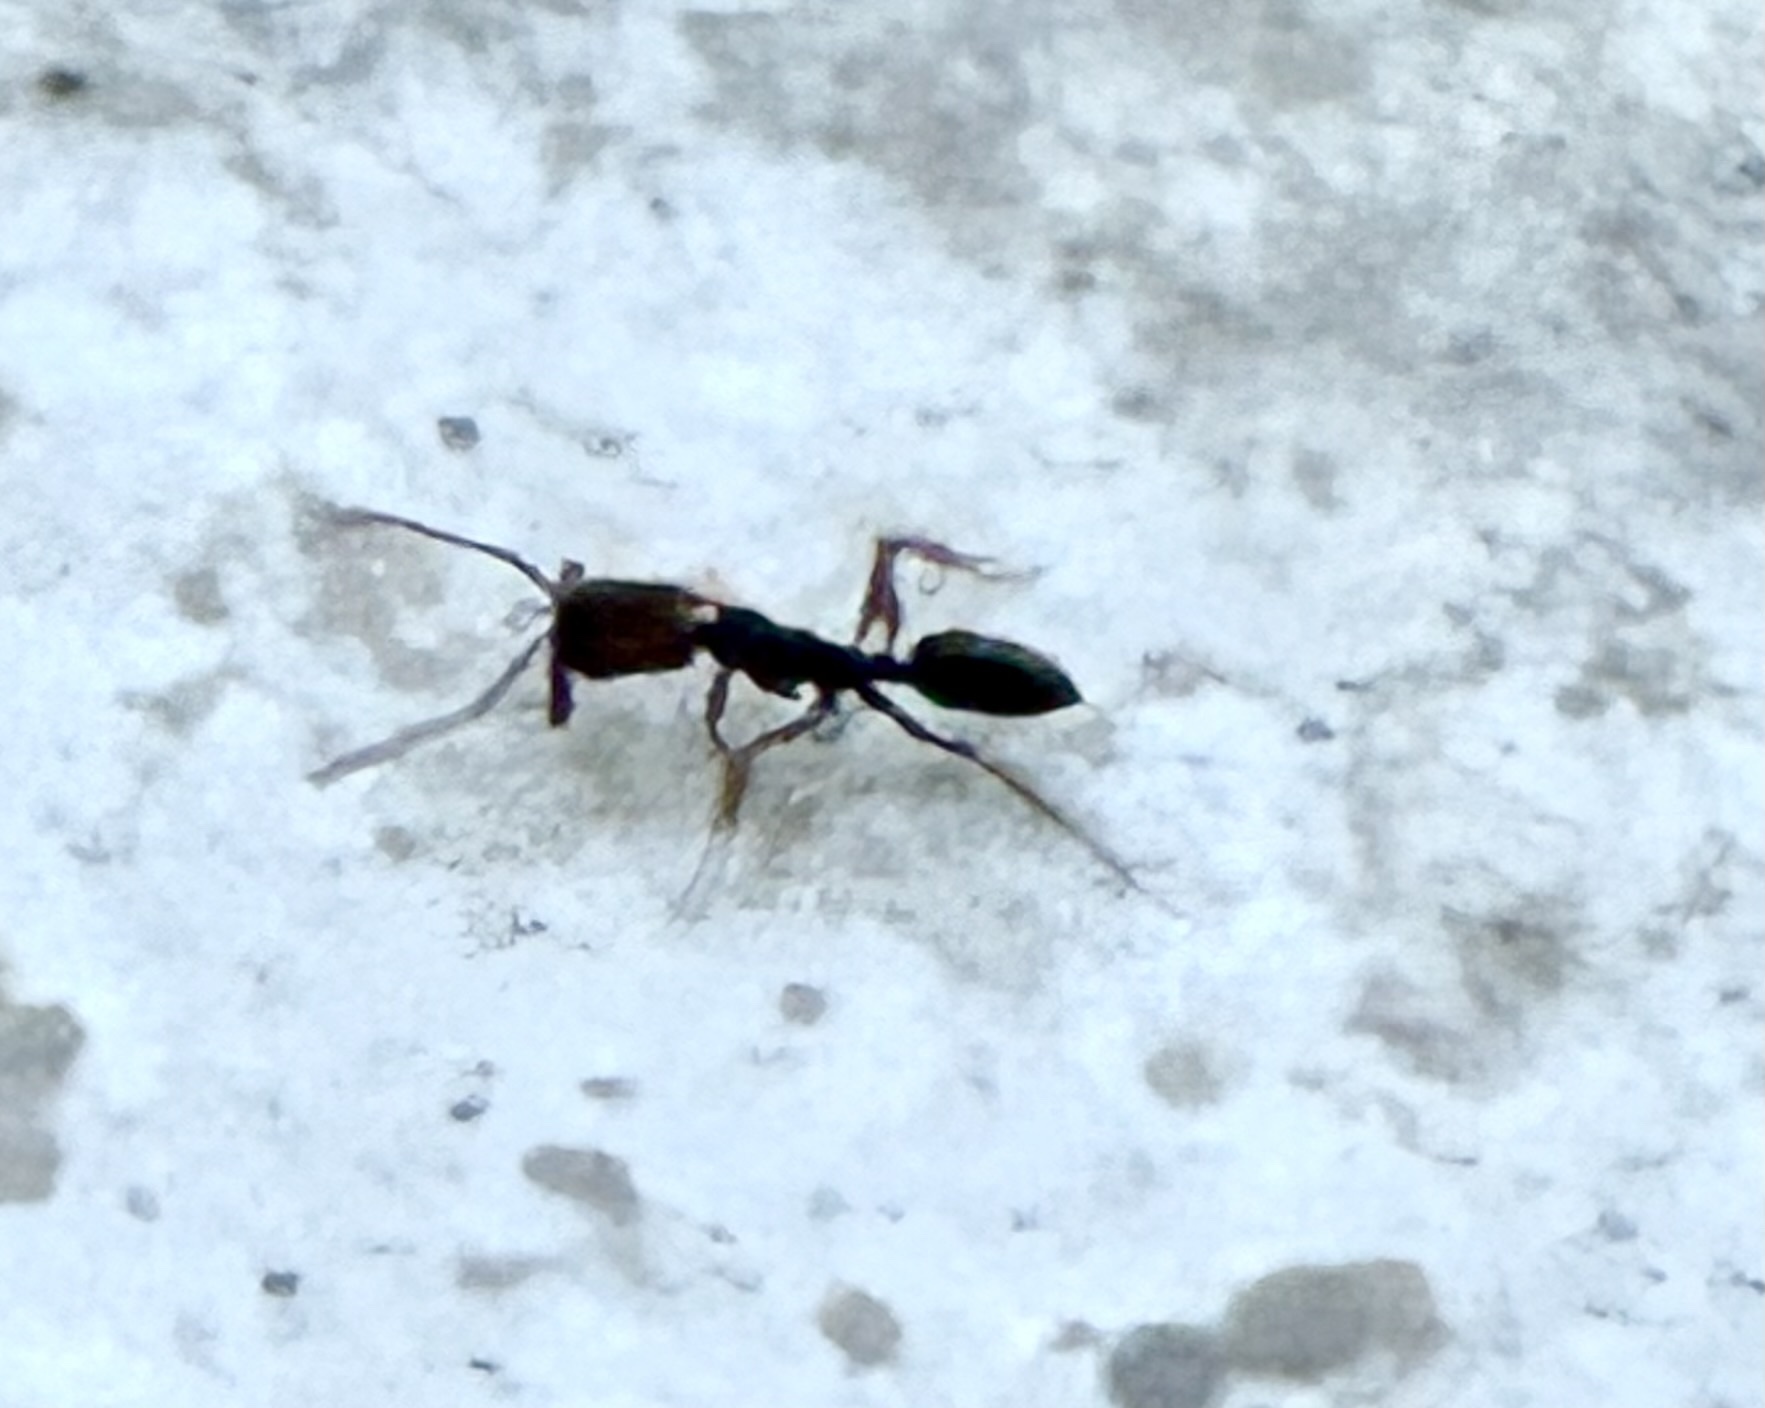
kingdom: Animalia
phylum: Arthropoda
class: Insecta
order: Hymenoptera
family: Formicidae
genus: Odontomachus
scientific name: Odontomachus clarus
